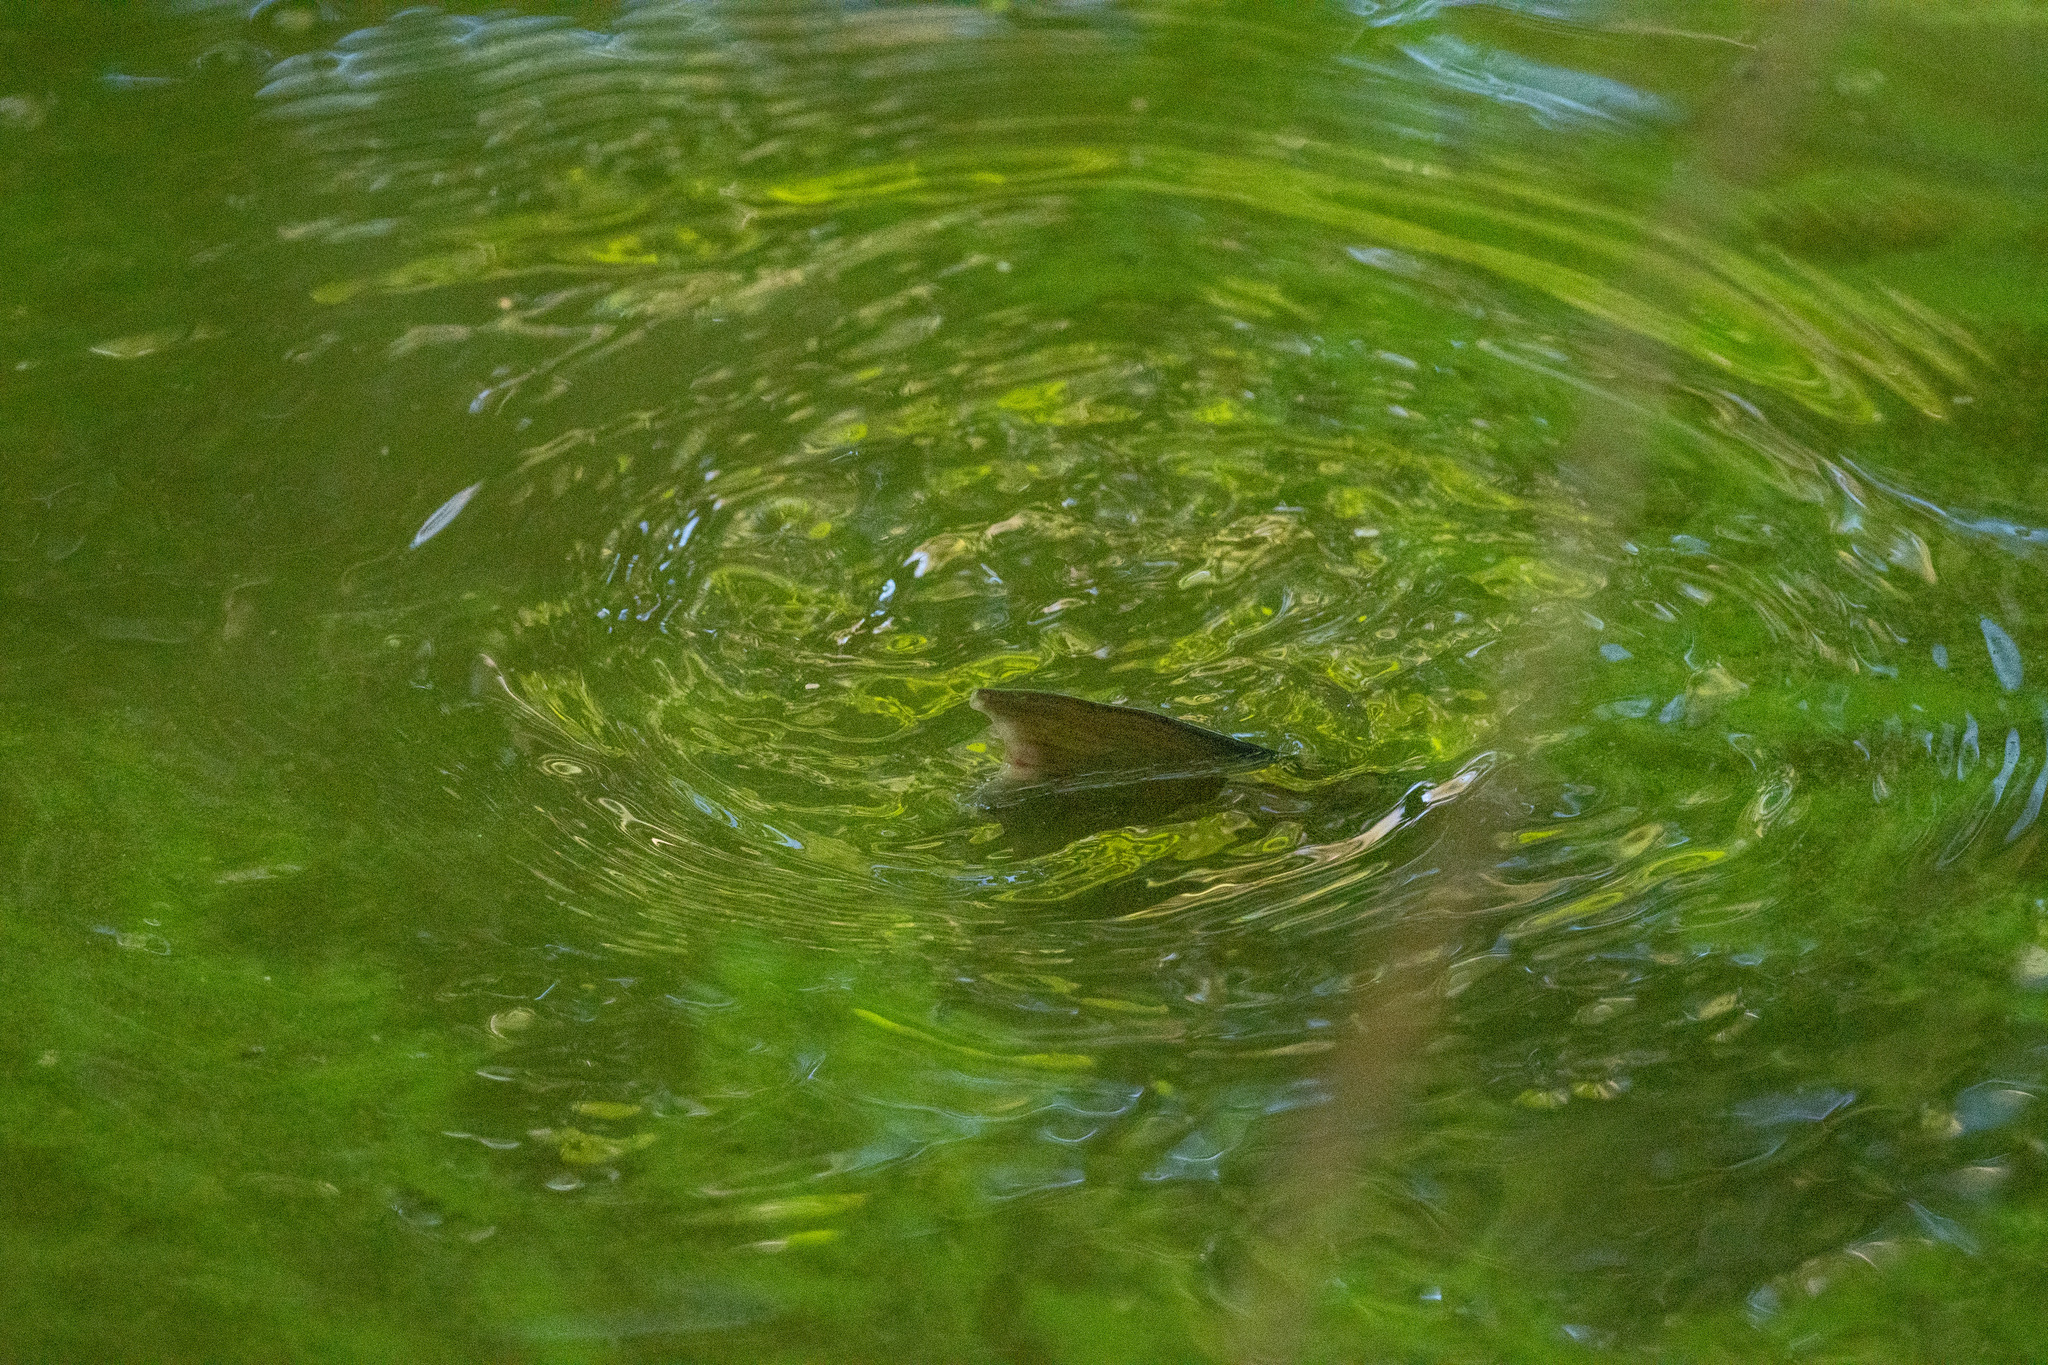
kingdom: Animalia
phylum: Chordata
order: Cypriniformes
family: Cyprinidae
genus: Cyprinus
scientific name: Cyprinus carpio
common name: Common carp
